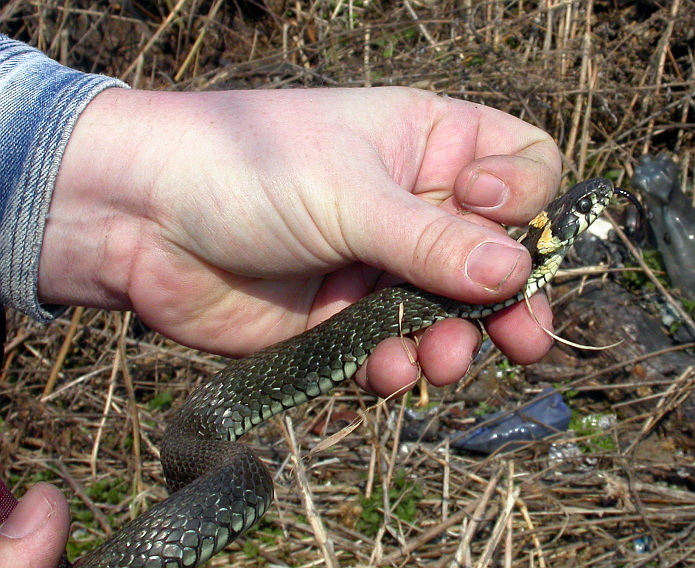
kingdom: Animalia
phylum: Chordata
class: Squamata
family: Colubridae
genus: Natrix
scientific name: Natrix natrix
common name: Grass snake
